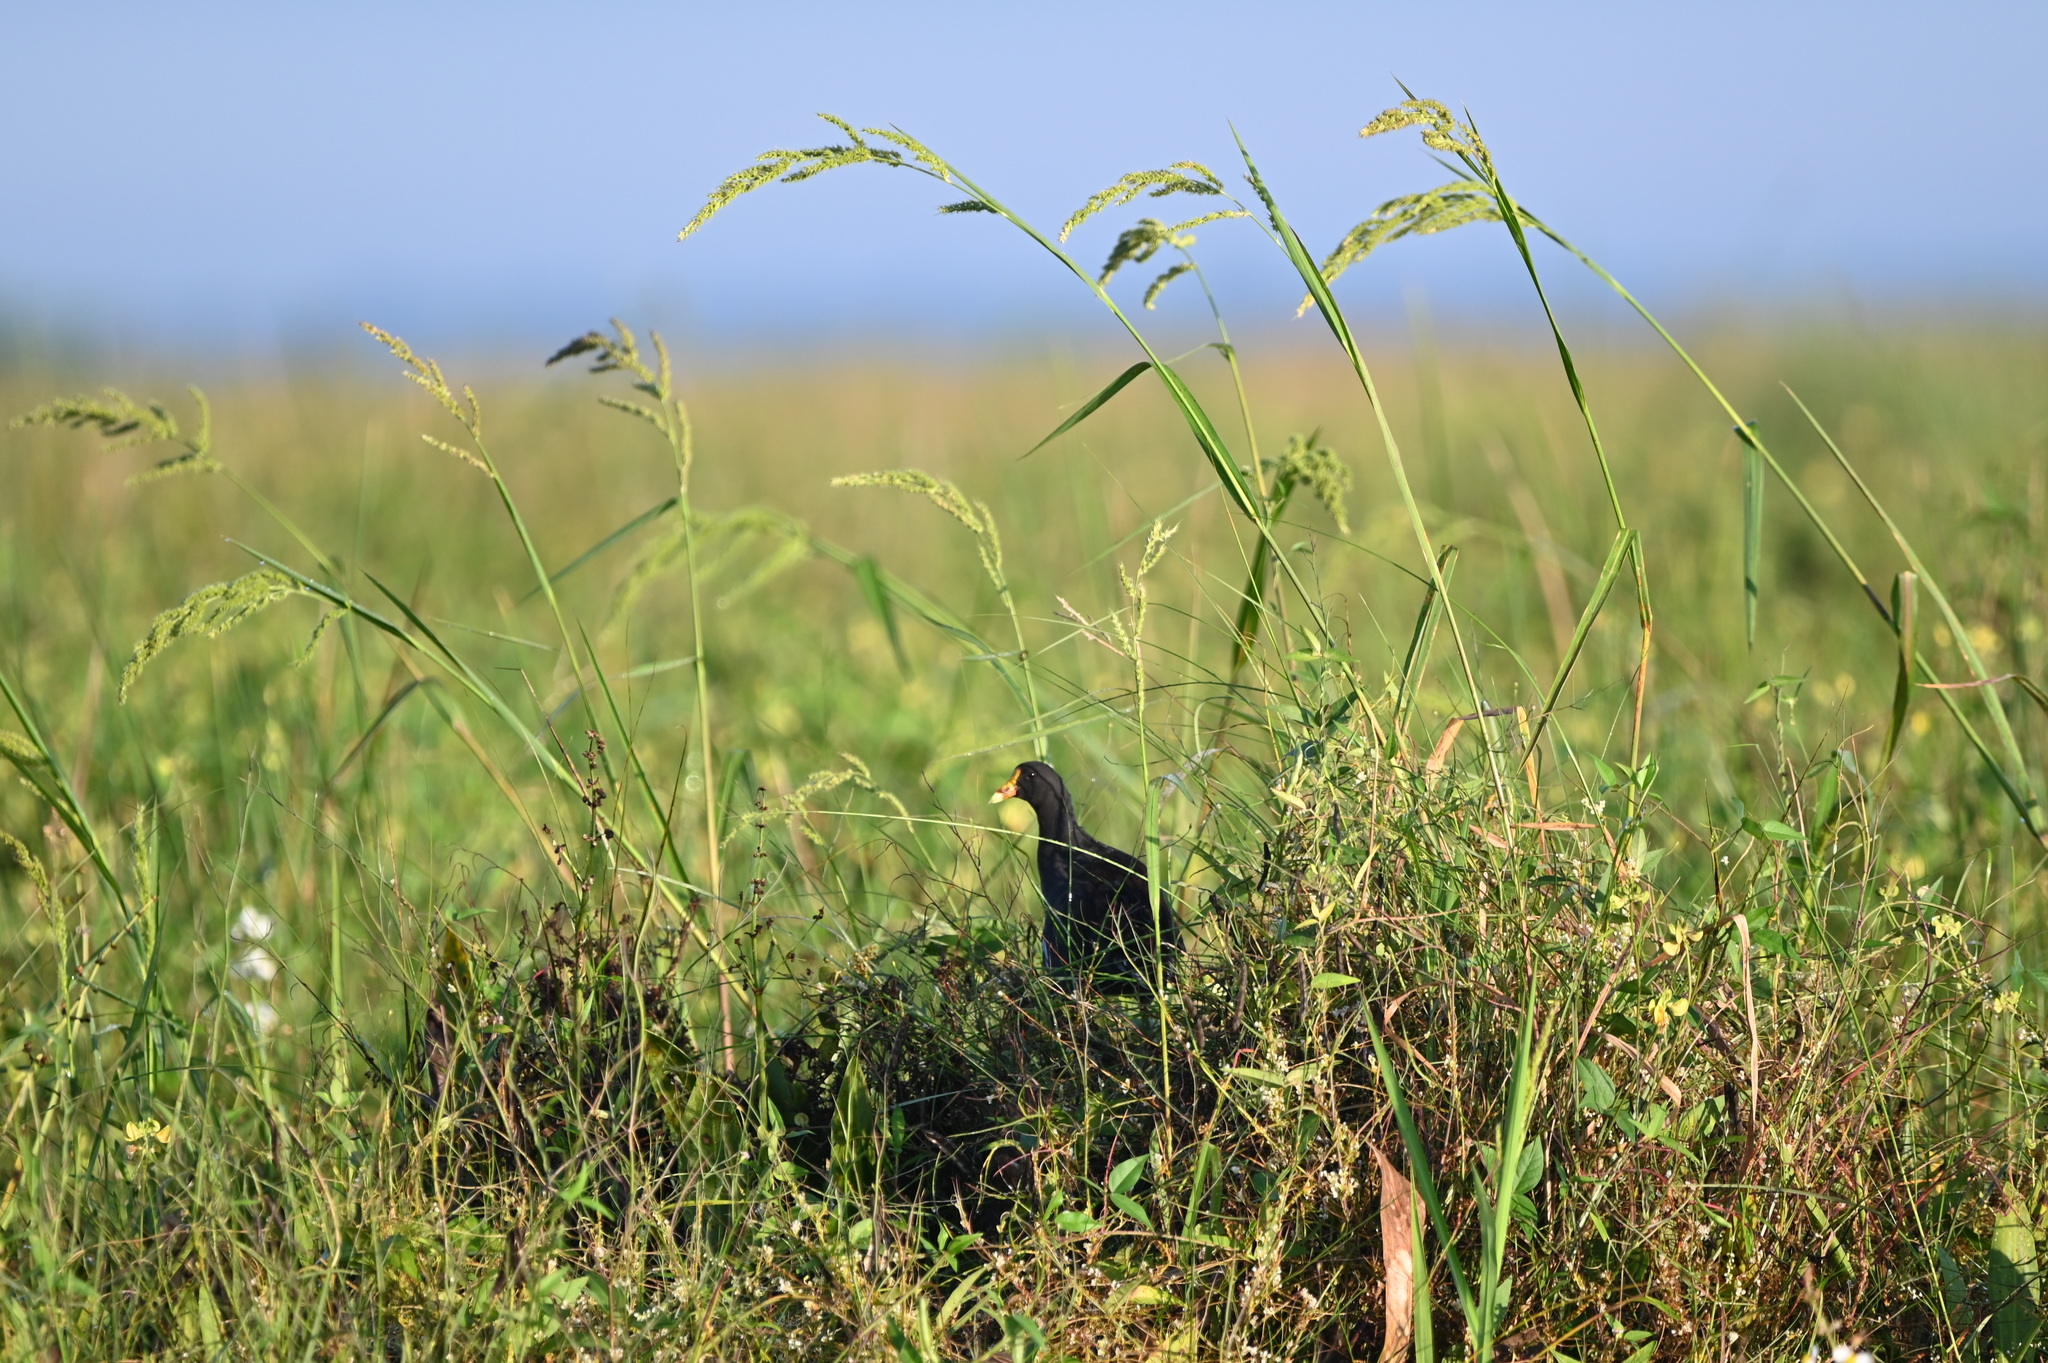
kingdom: Animalia
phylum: Chordata
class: Aves
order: Gruiformes
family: Rallidae
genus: Gallinula
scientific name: Gallinula chloropus
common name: Common moorhen
